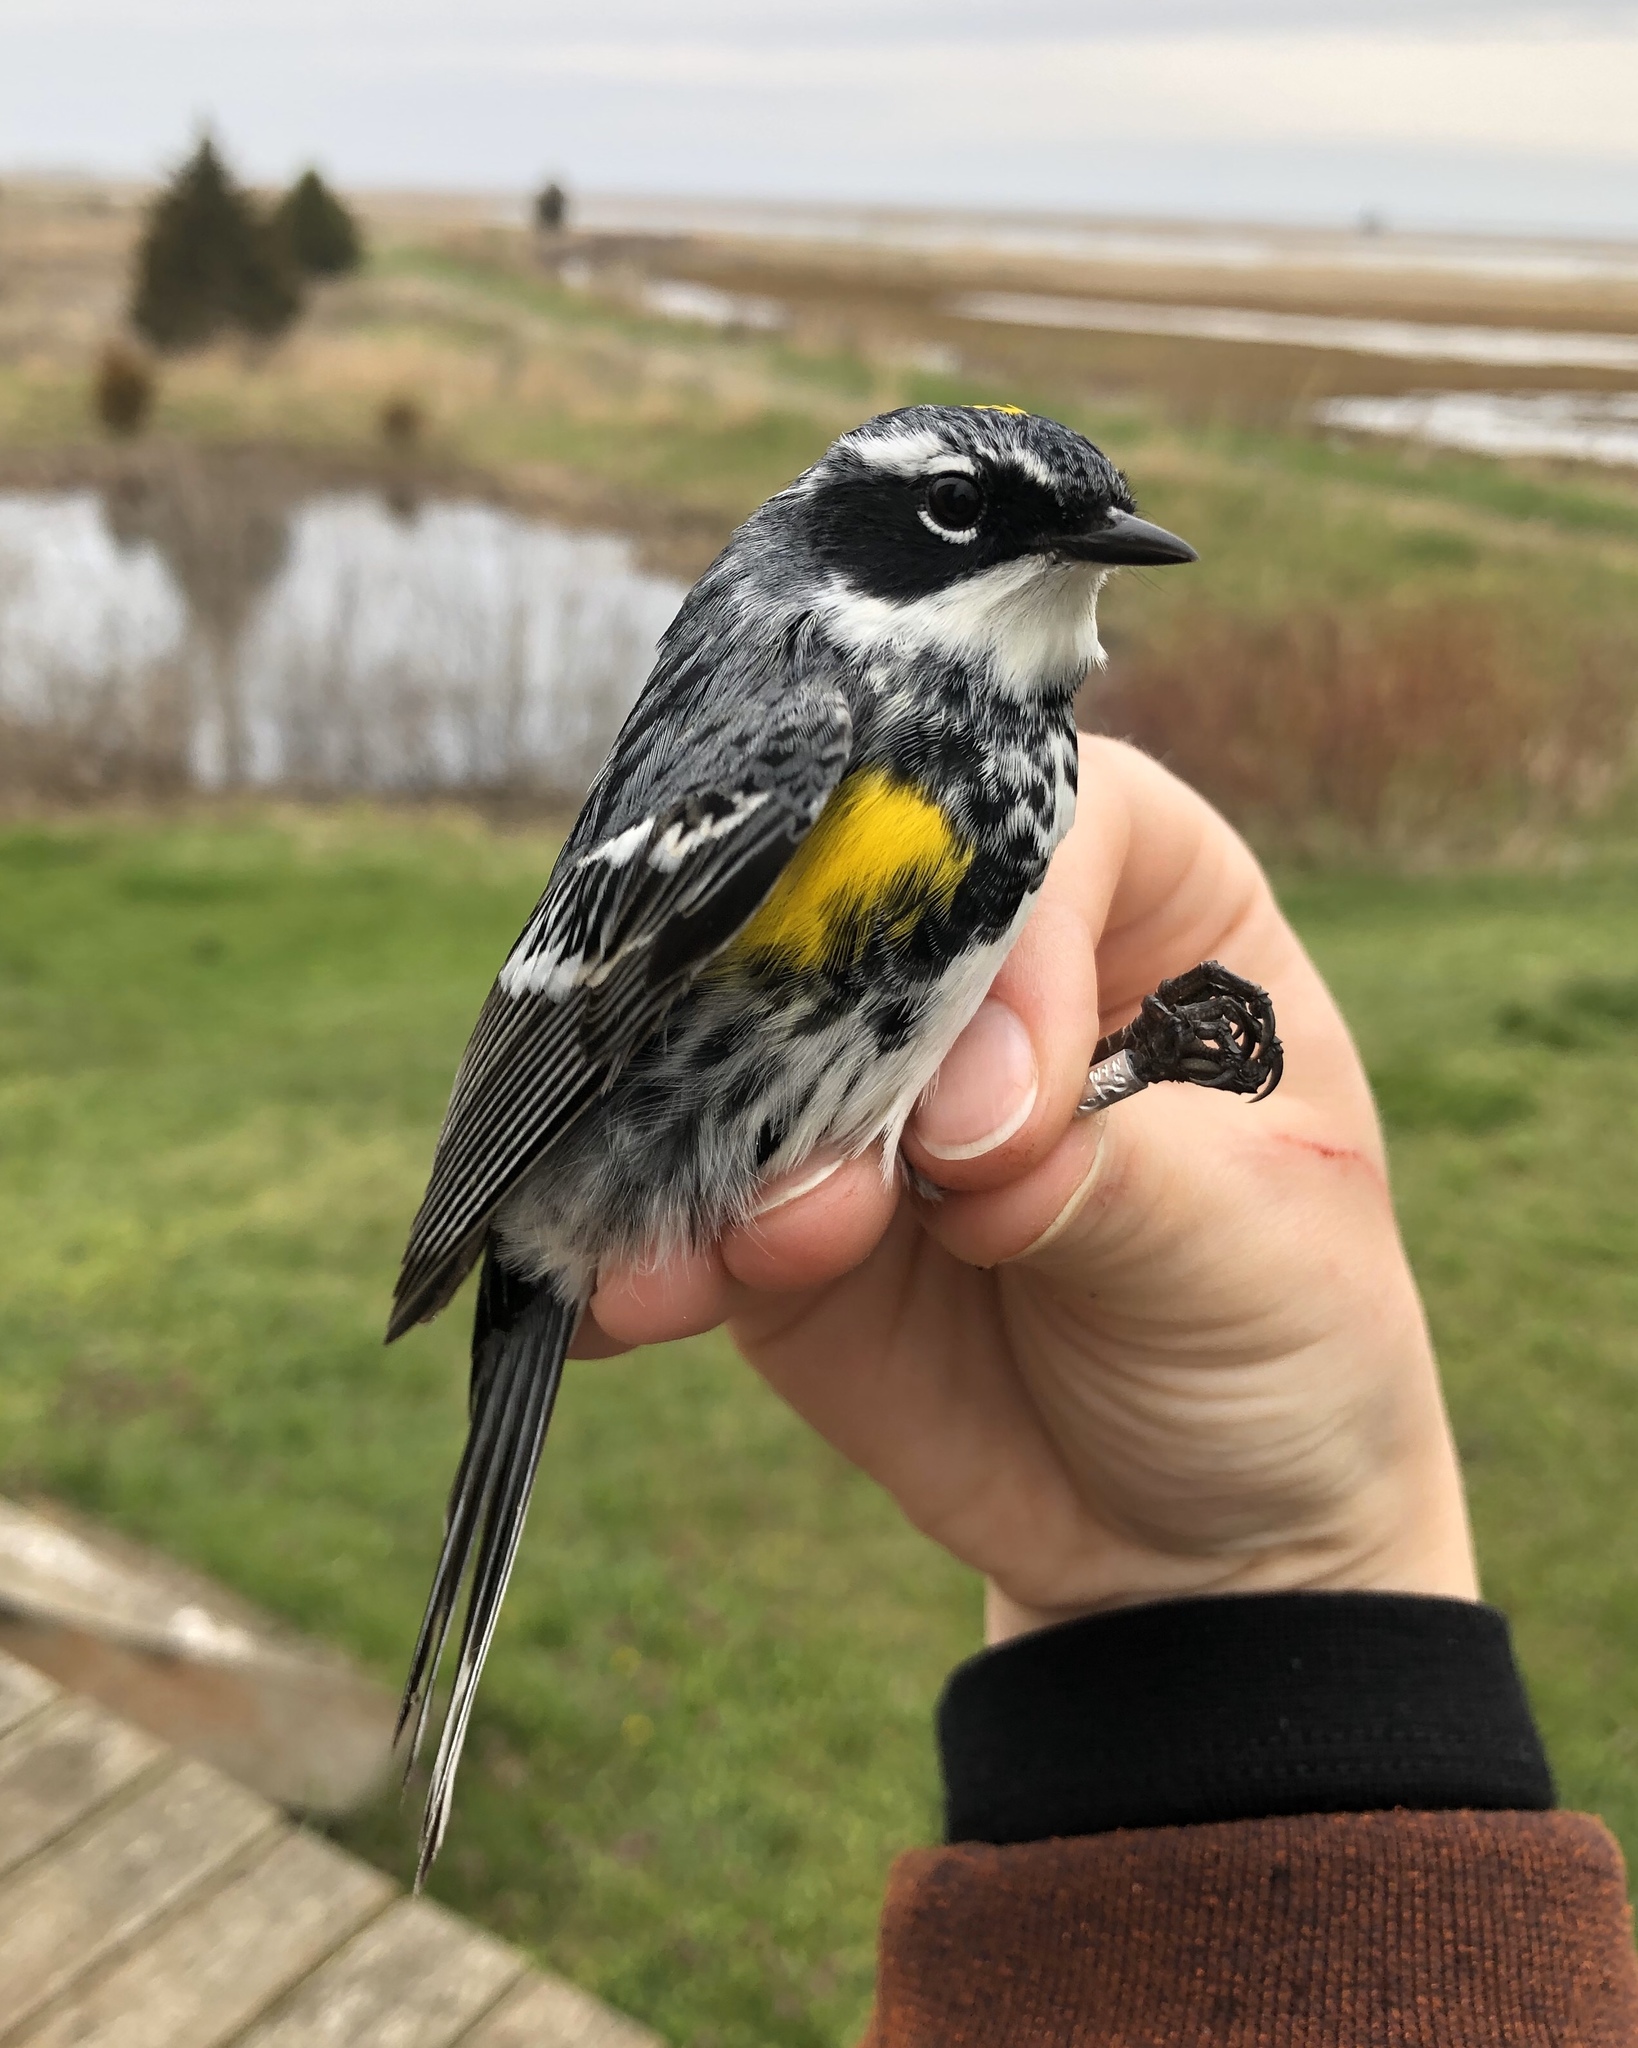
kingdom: Animalia
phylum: Chordata
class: Aves
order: Passeriformes
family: Parulidae
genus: Setophaga
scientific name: Setophaga coronata
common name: Myrtle warbler
